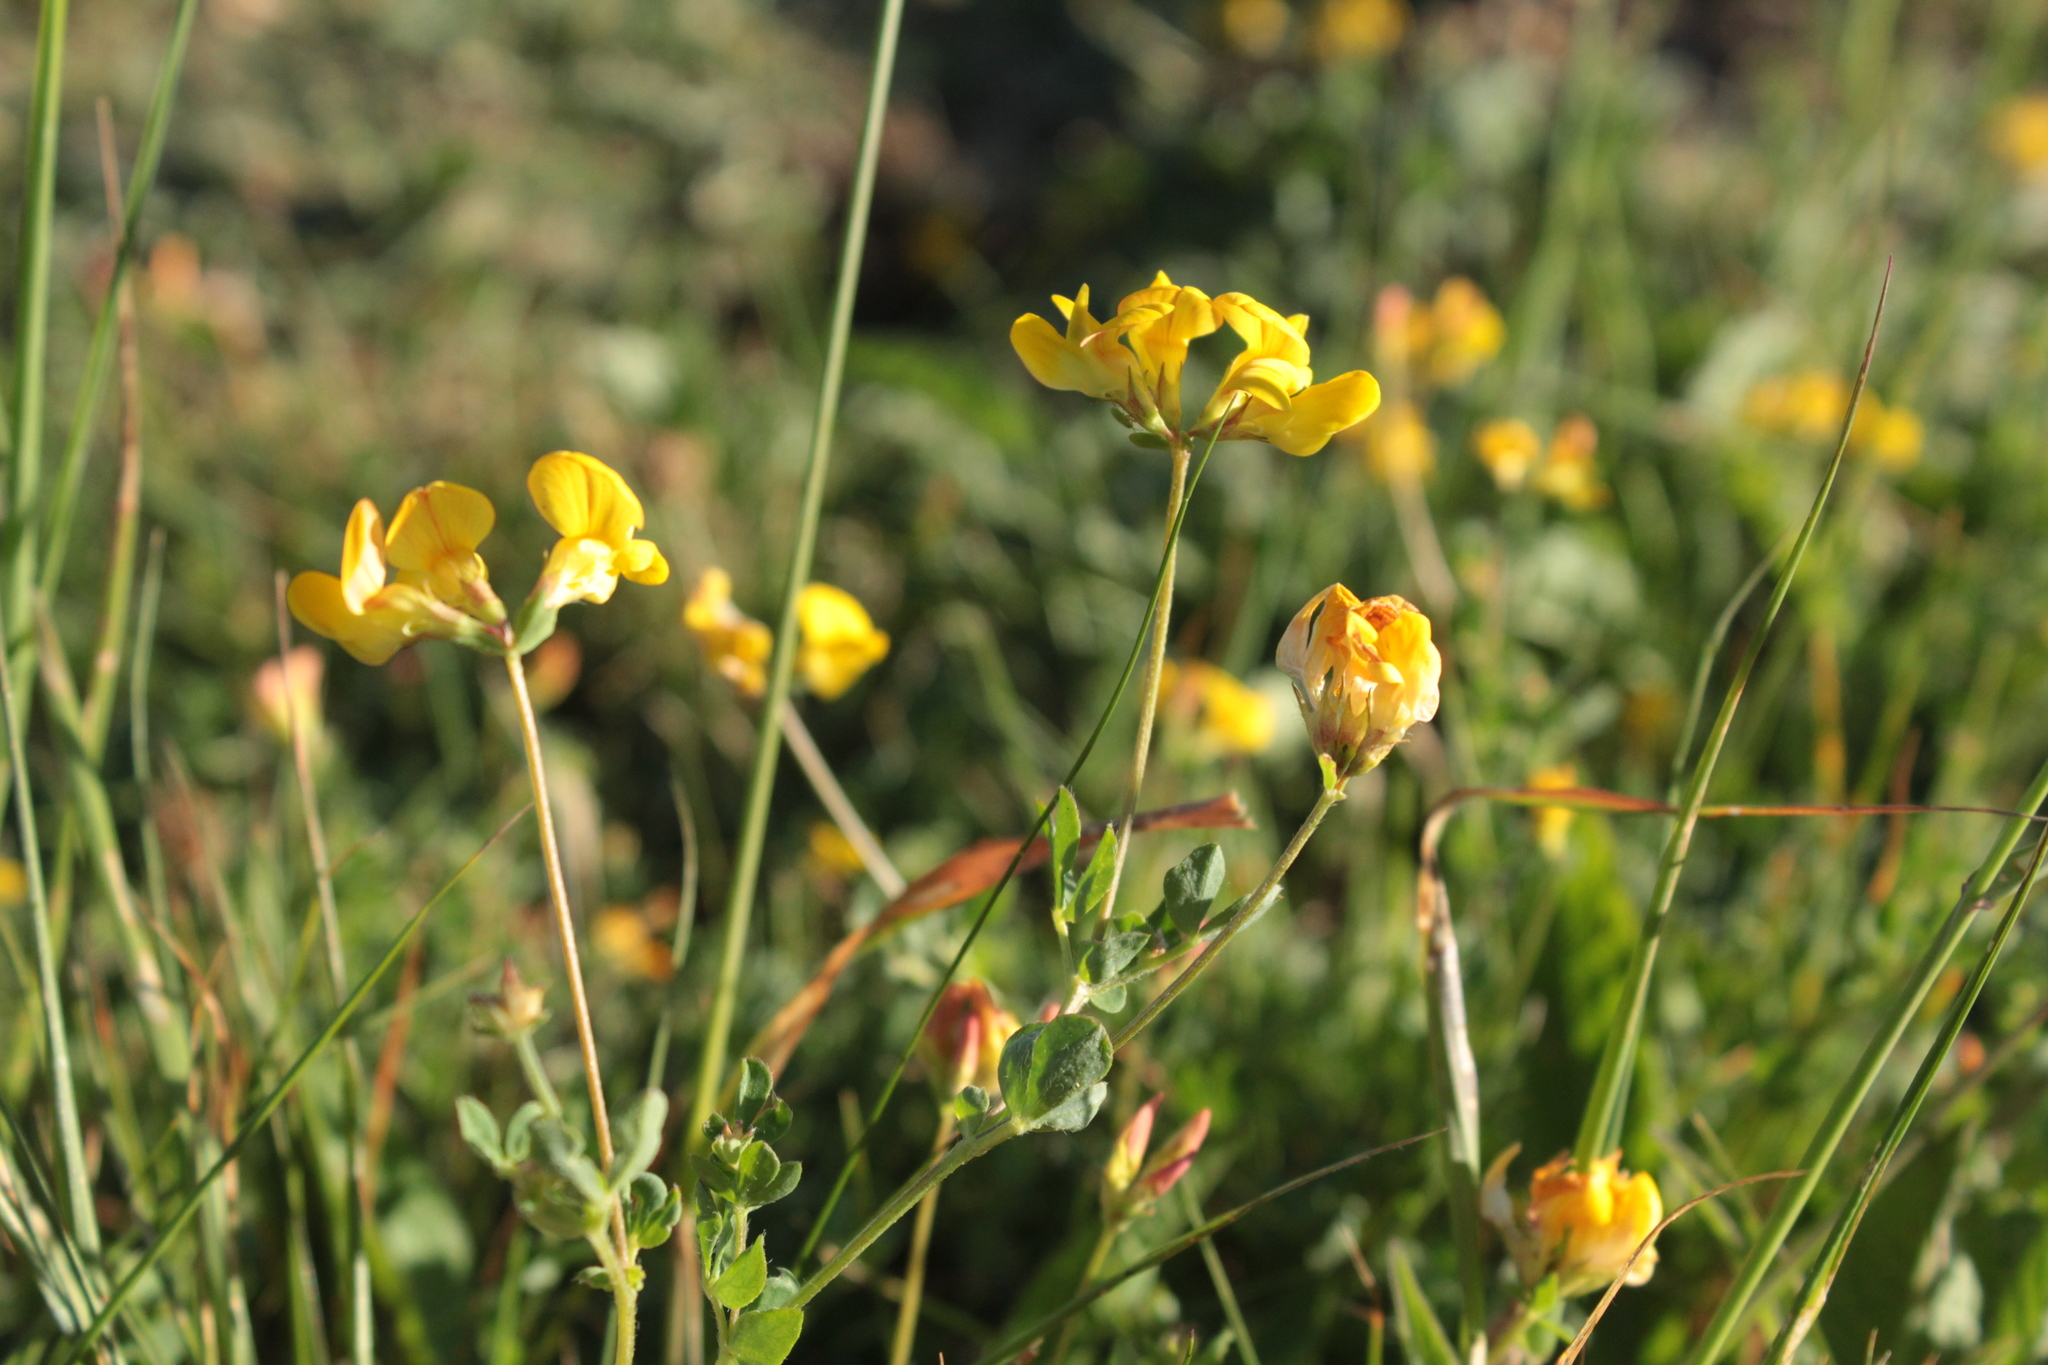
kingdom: Plantae
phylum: Tracheophyta
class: Magnoliopsida
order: Fabales
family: Fabaceae
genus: Lotus
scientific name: Lotus corniculatus
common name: Common bird's-foot-trefoil
